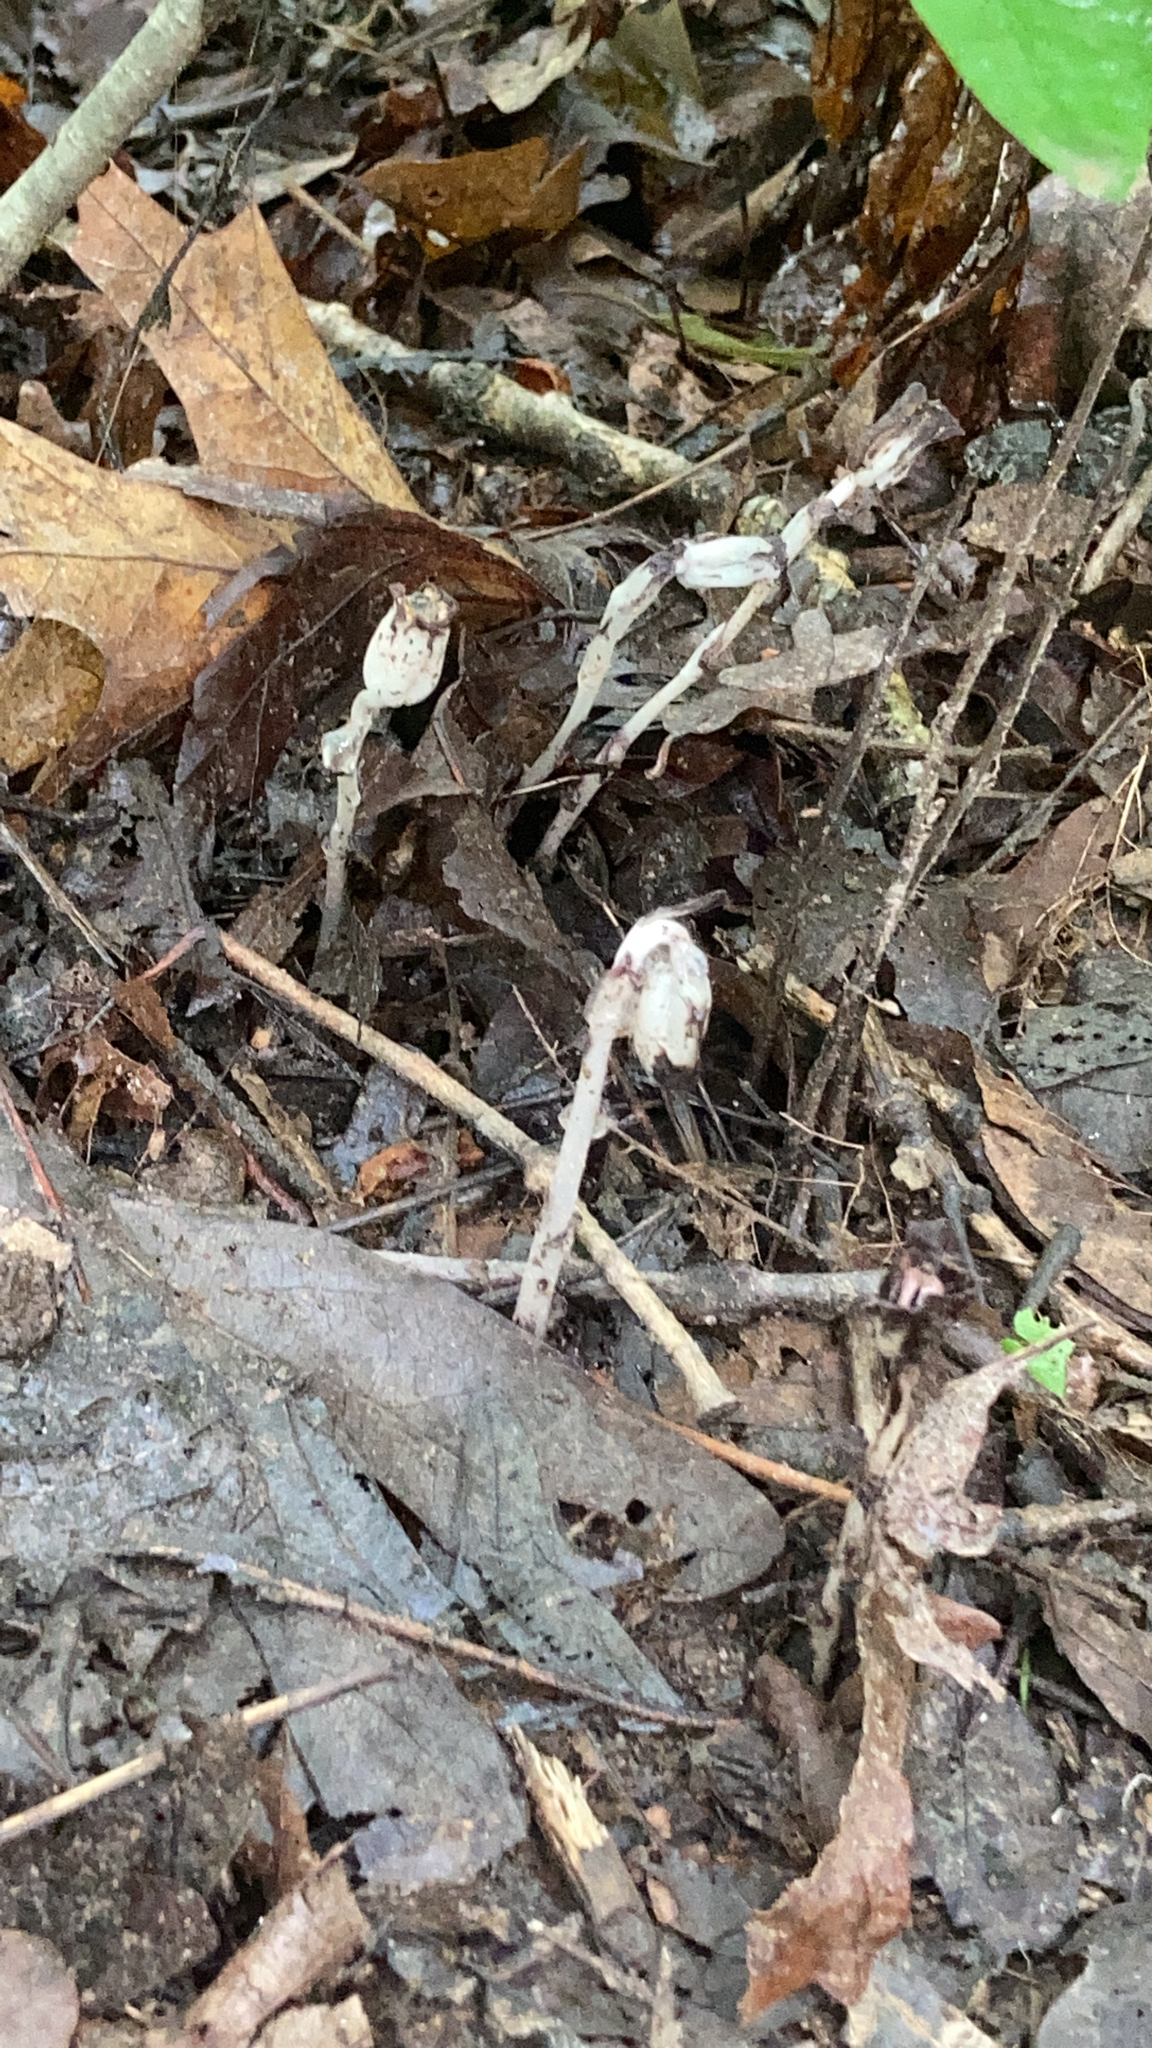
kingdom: Plantae
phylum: Tracheophyta
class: Magnoliopsida
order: Ericales
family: Ericaceae
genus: Monotropa
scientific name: Monotropa uniflora
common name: Convulsion root
